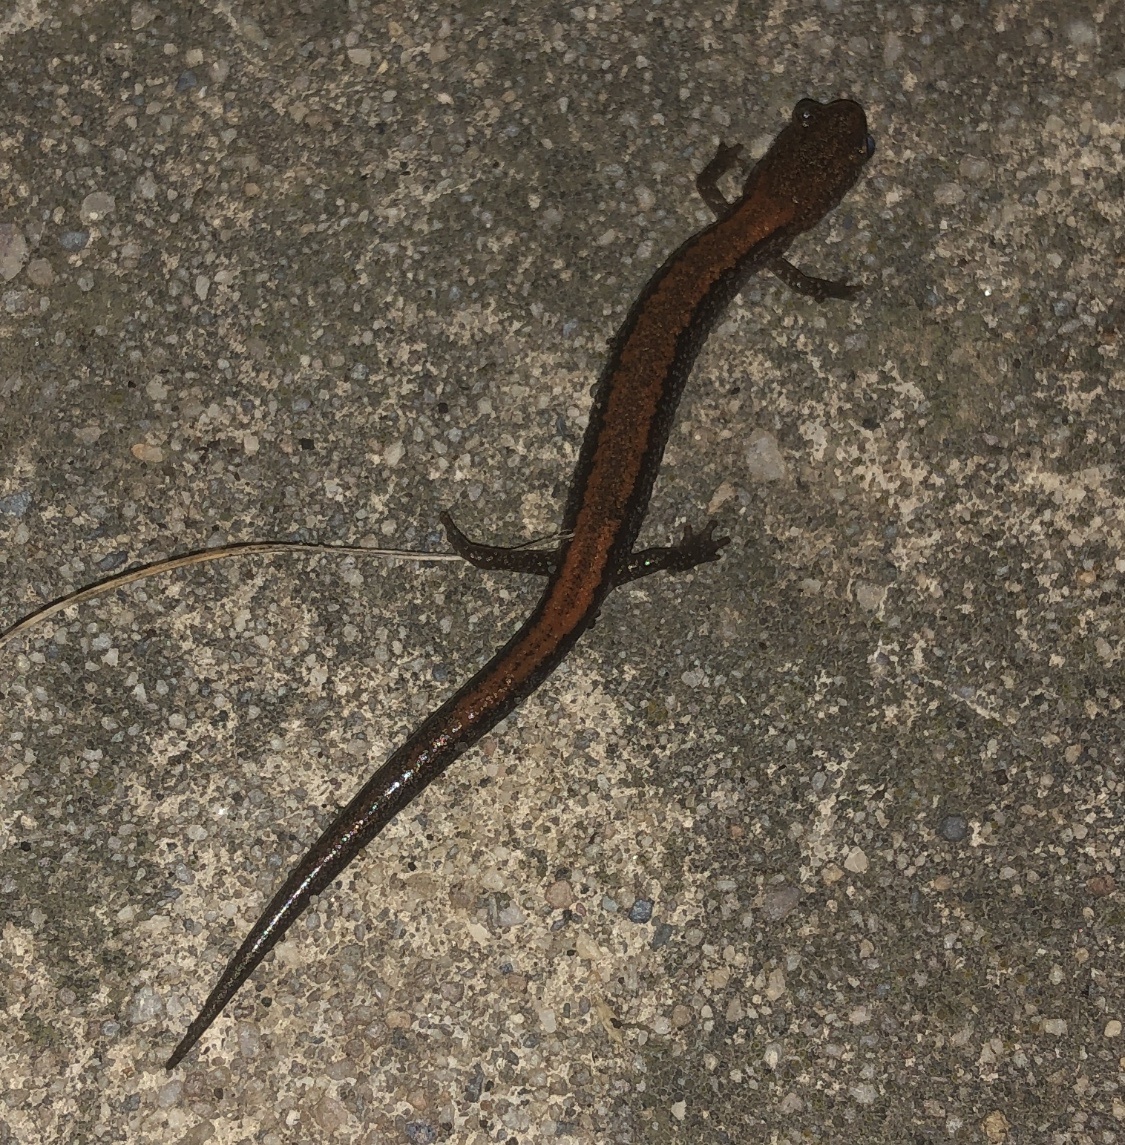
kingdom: Animalia
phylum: Chordata
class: Amphibia
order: Caudata
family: Plethodontidae
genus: Plethodon
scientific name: Plethodon cinereus
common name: Redback salamander
